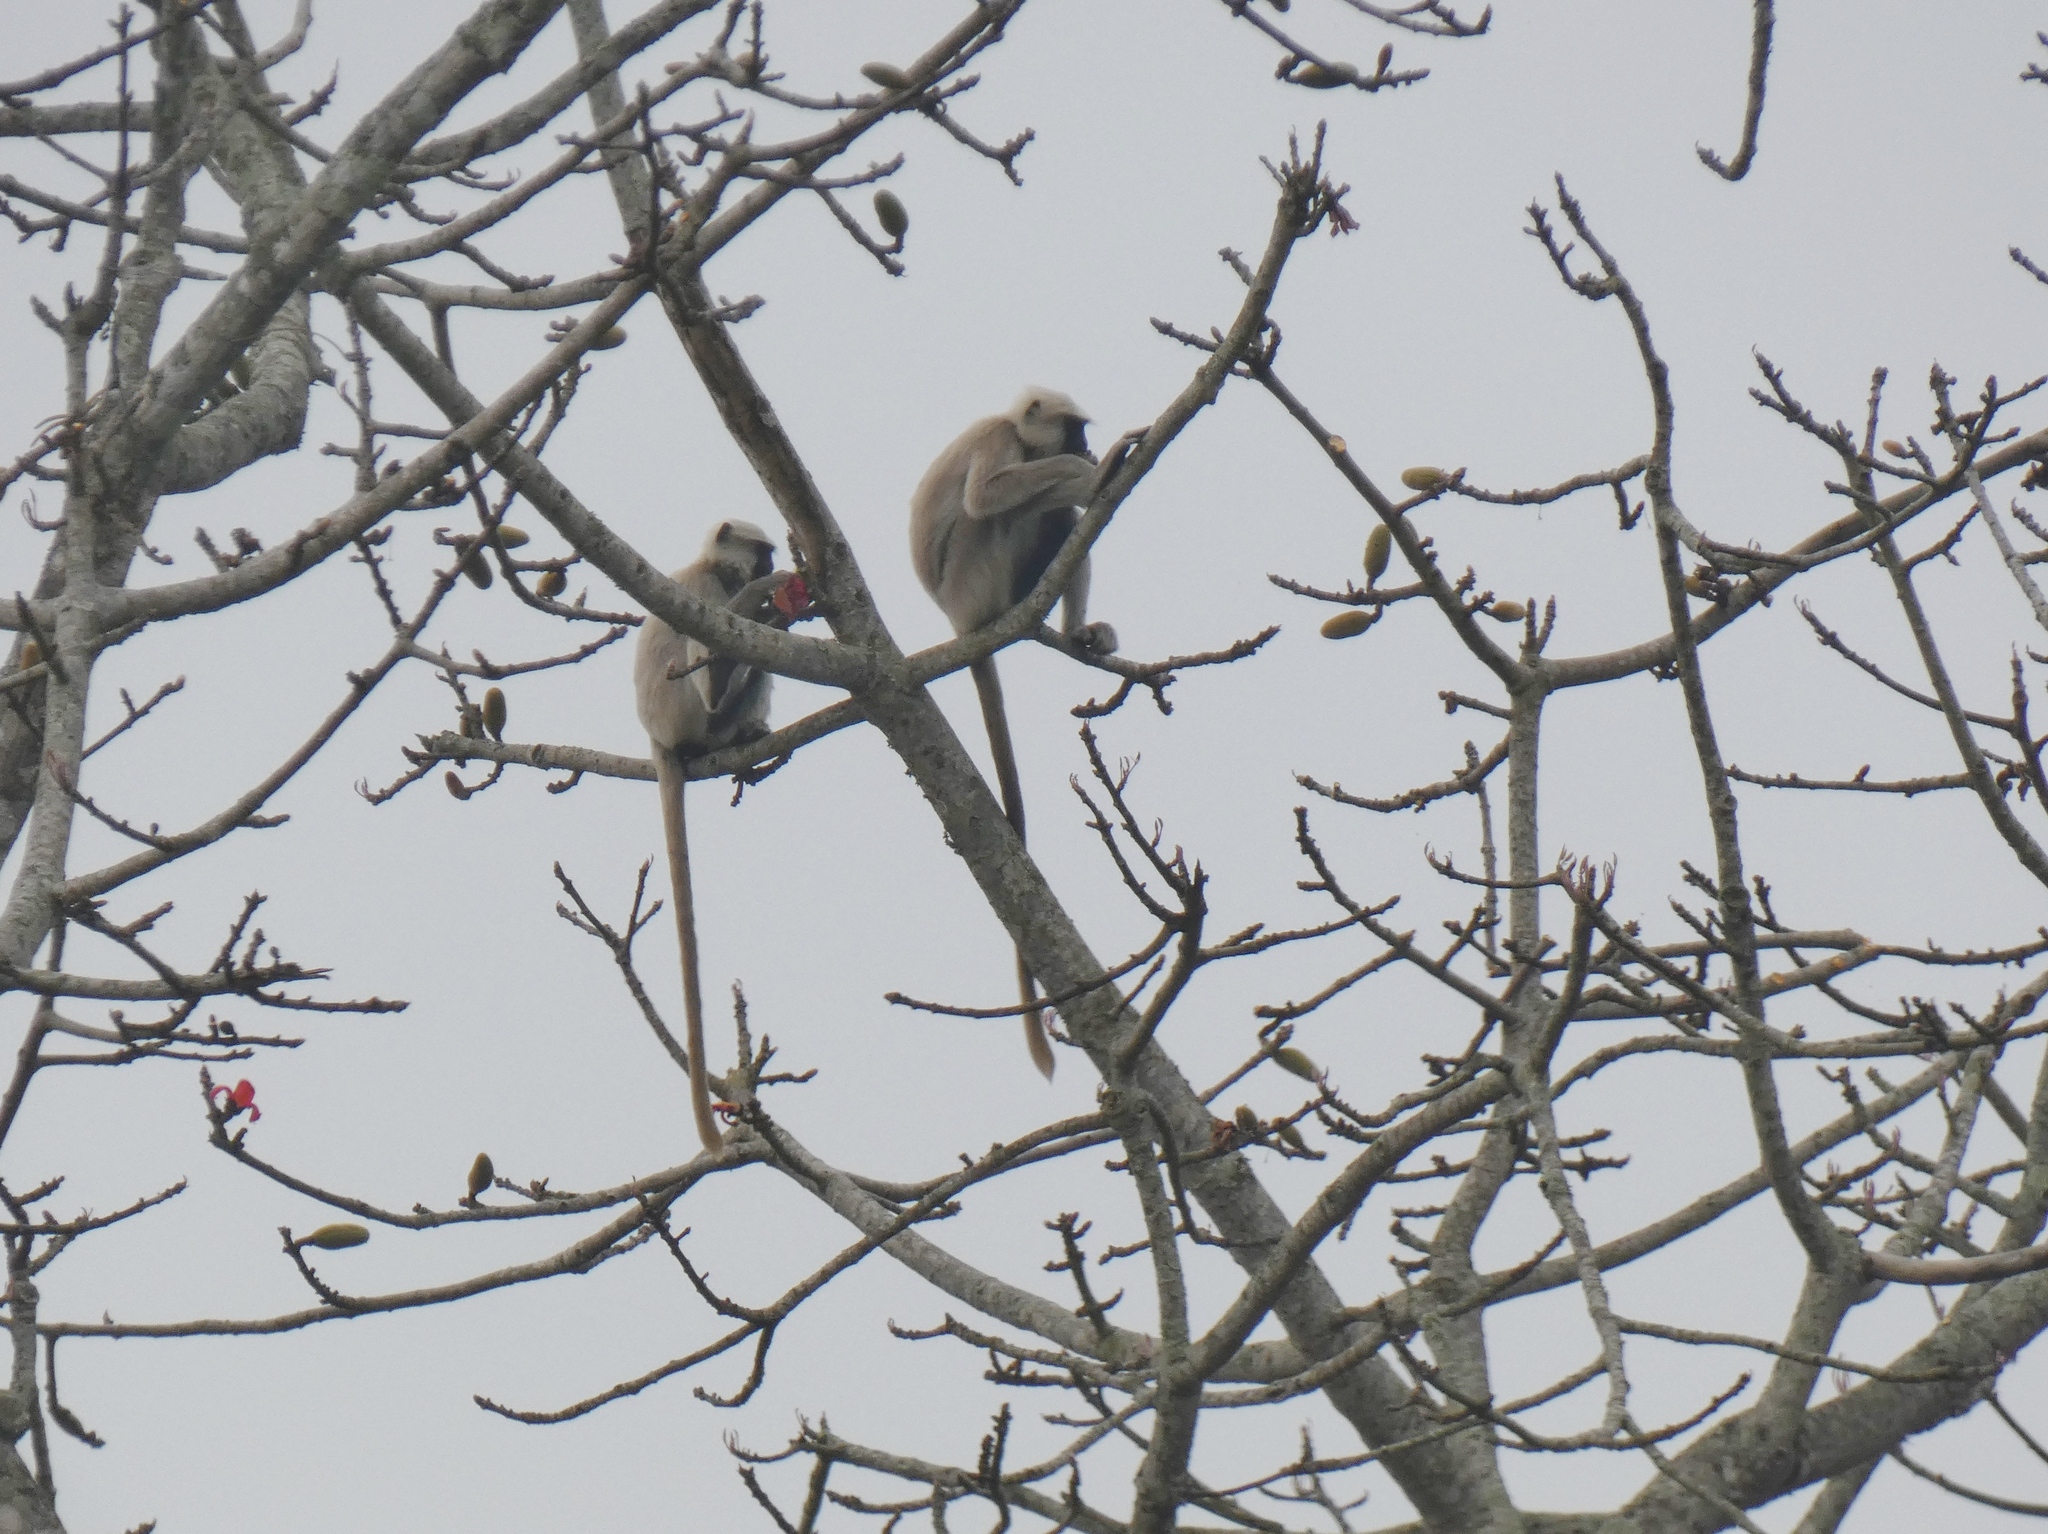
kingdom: Animalia
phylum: Chordata
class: Mammalia
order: Primates
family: Cercopithecidae
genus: Semnopithecus
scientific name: Semnopithecus schistaceus
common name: Nepal gray langur
